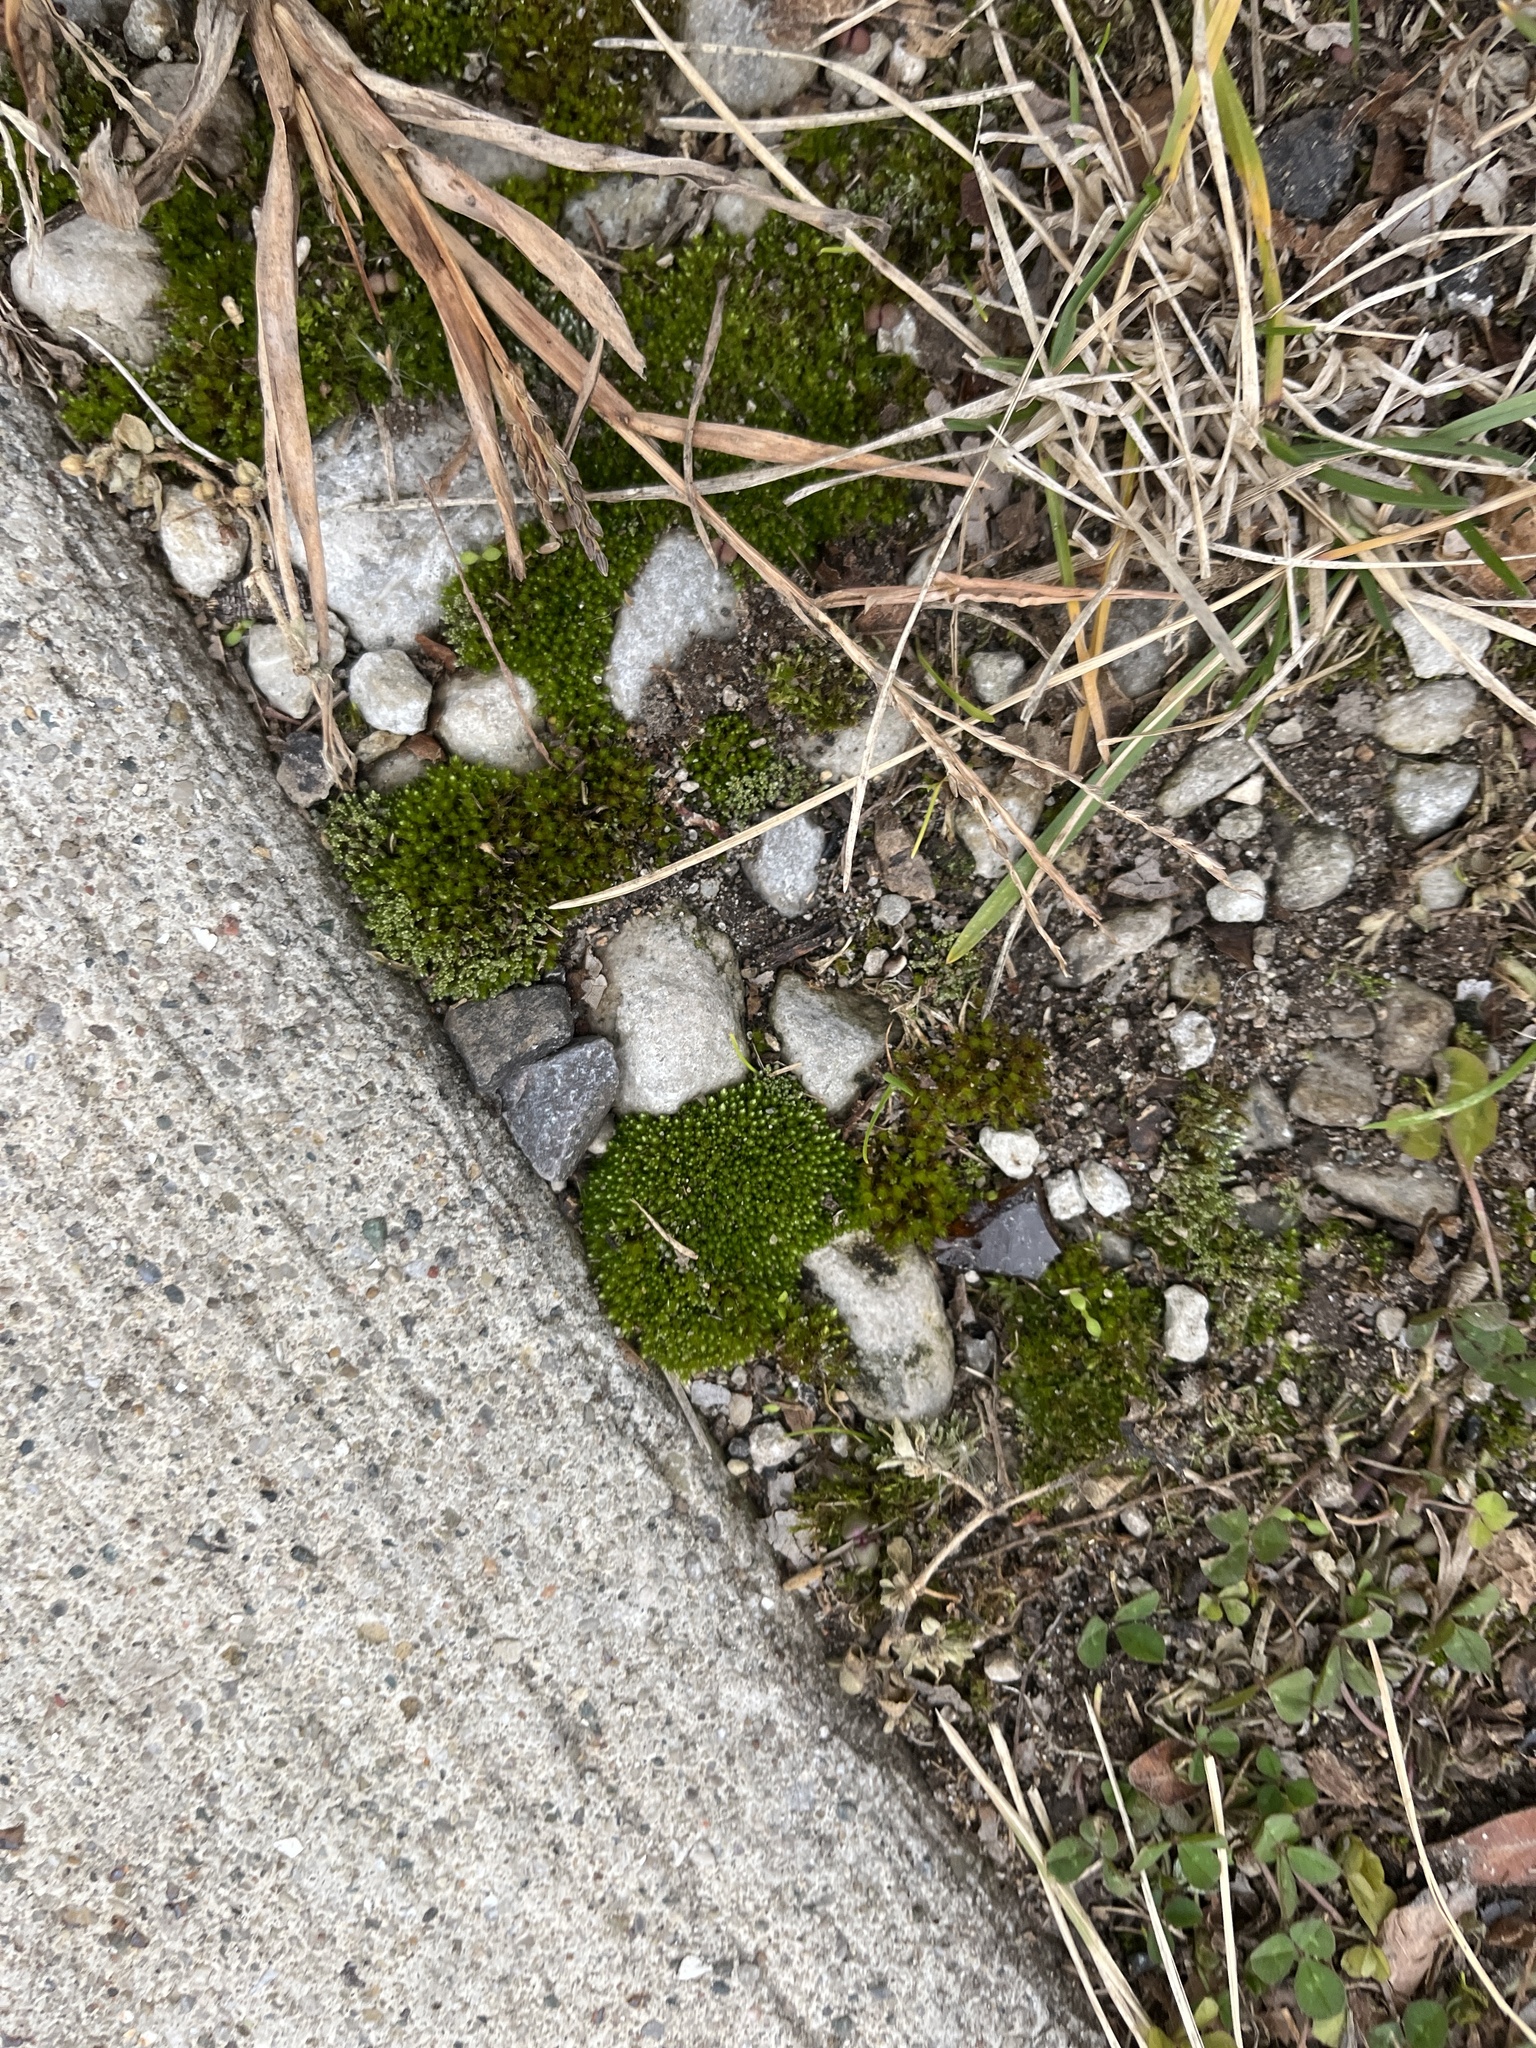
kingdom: Plantae
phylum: Bryophyta
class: Bryopsida
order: Bryales
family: Bryaceae
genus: Bryum
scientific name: Bryum argenteum
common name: Silver-moss
